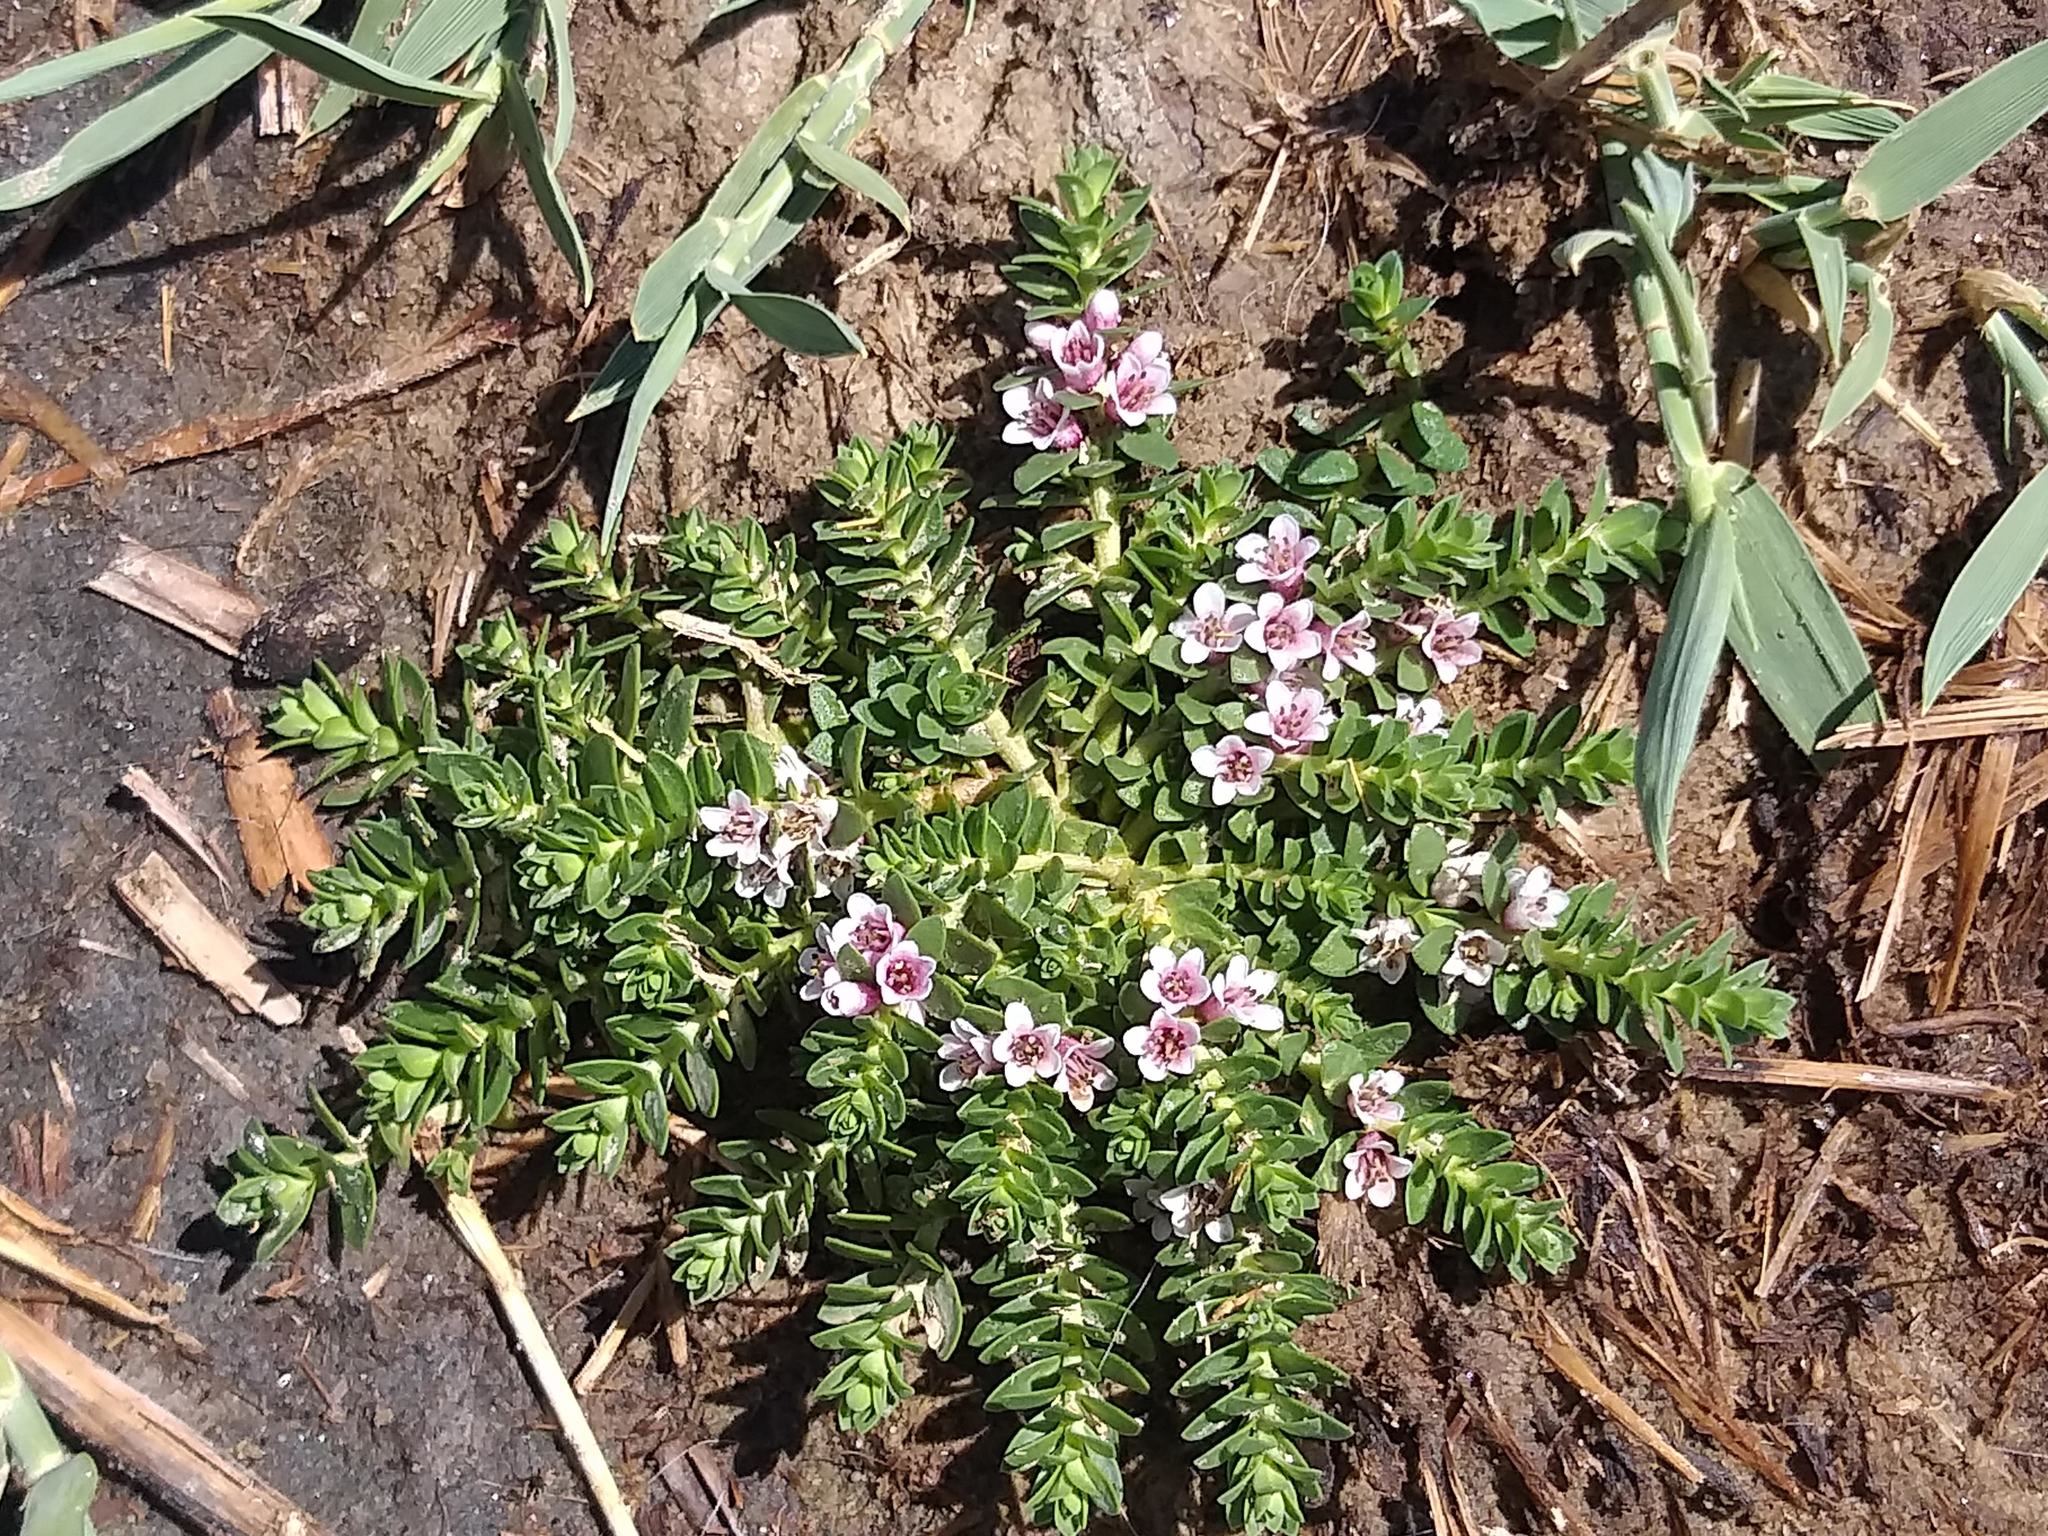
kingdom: Plantae
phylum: Tracheophyta
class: Magnoliopsida
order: Ericales
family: Primulaceae
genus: Lysimachia
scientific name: Lysimachia maritima
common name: Sea milkwort
